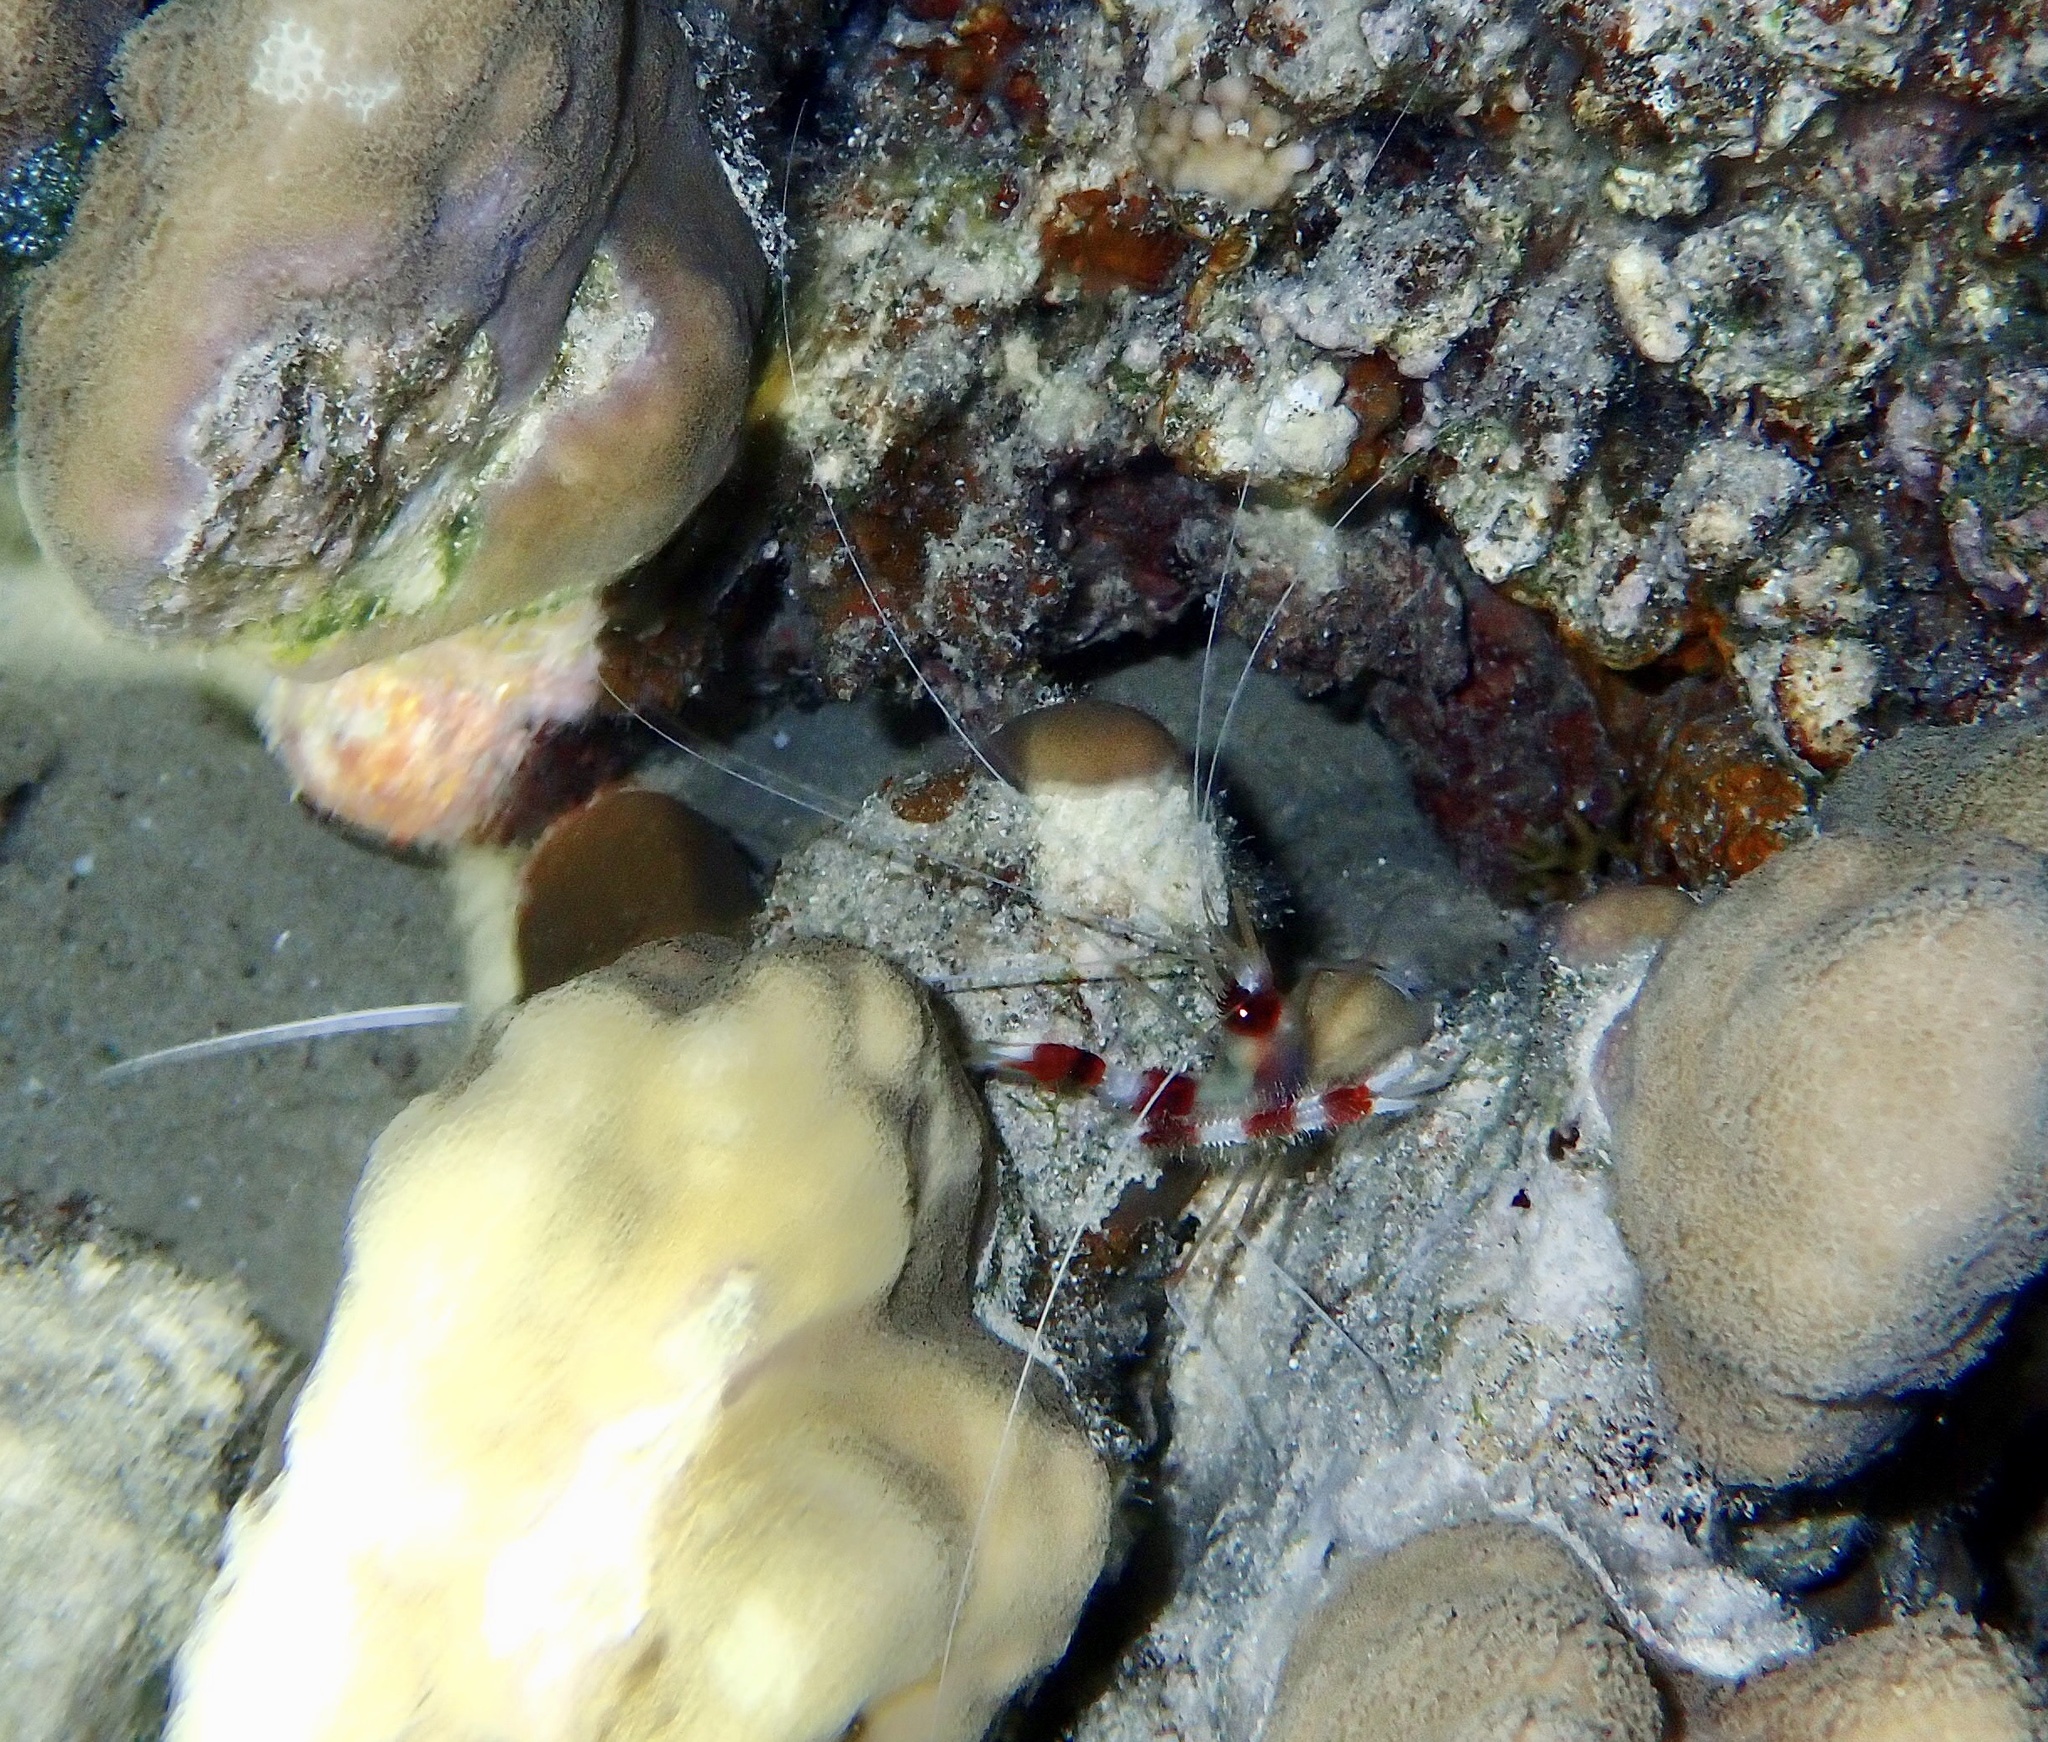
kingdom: Animalia
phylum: Arthropoda
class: Malacostraca
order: Decapoda
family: Stenopodidae
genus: Stenopus
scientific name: Stenopus hispidus
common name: Banded coral shrimp
